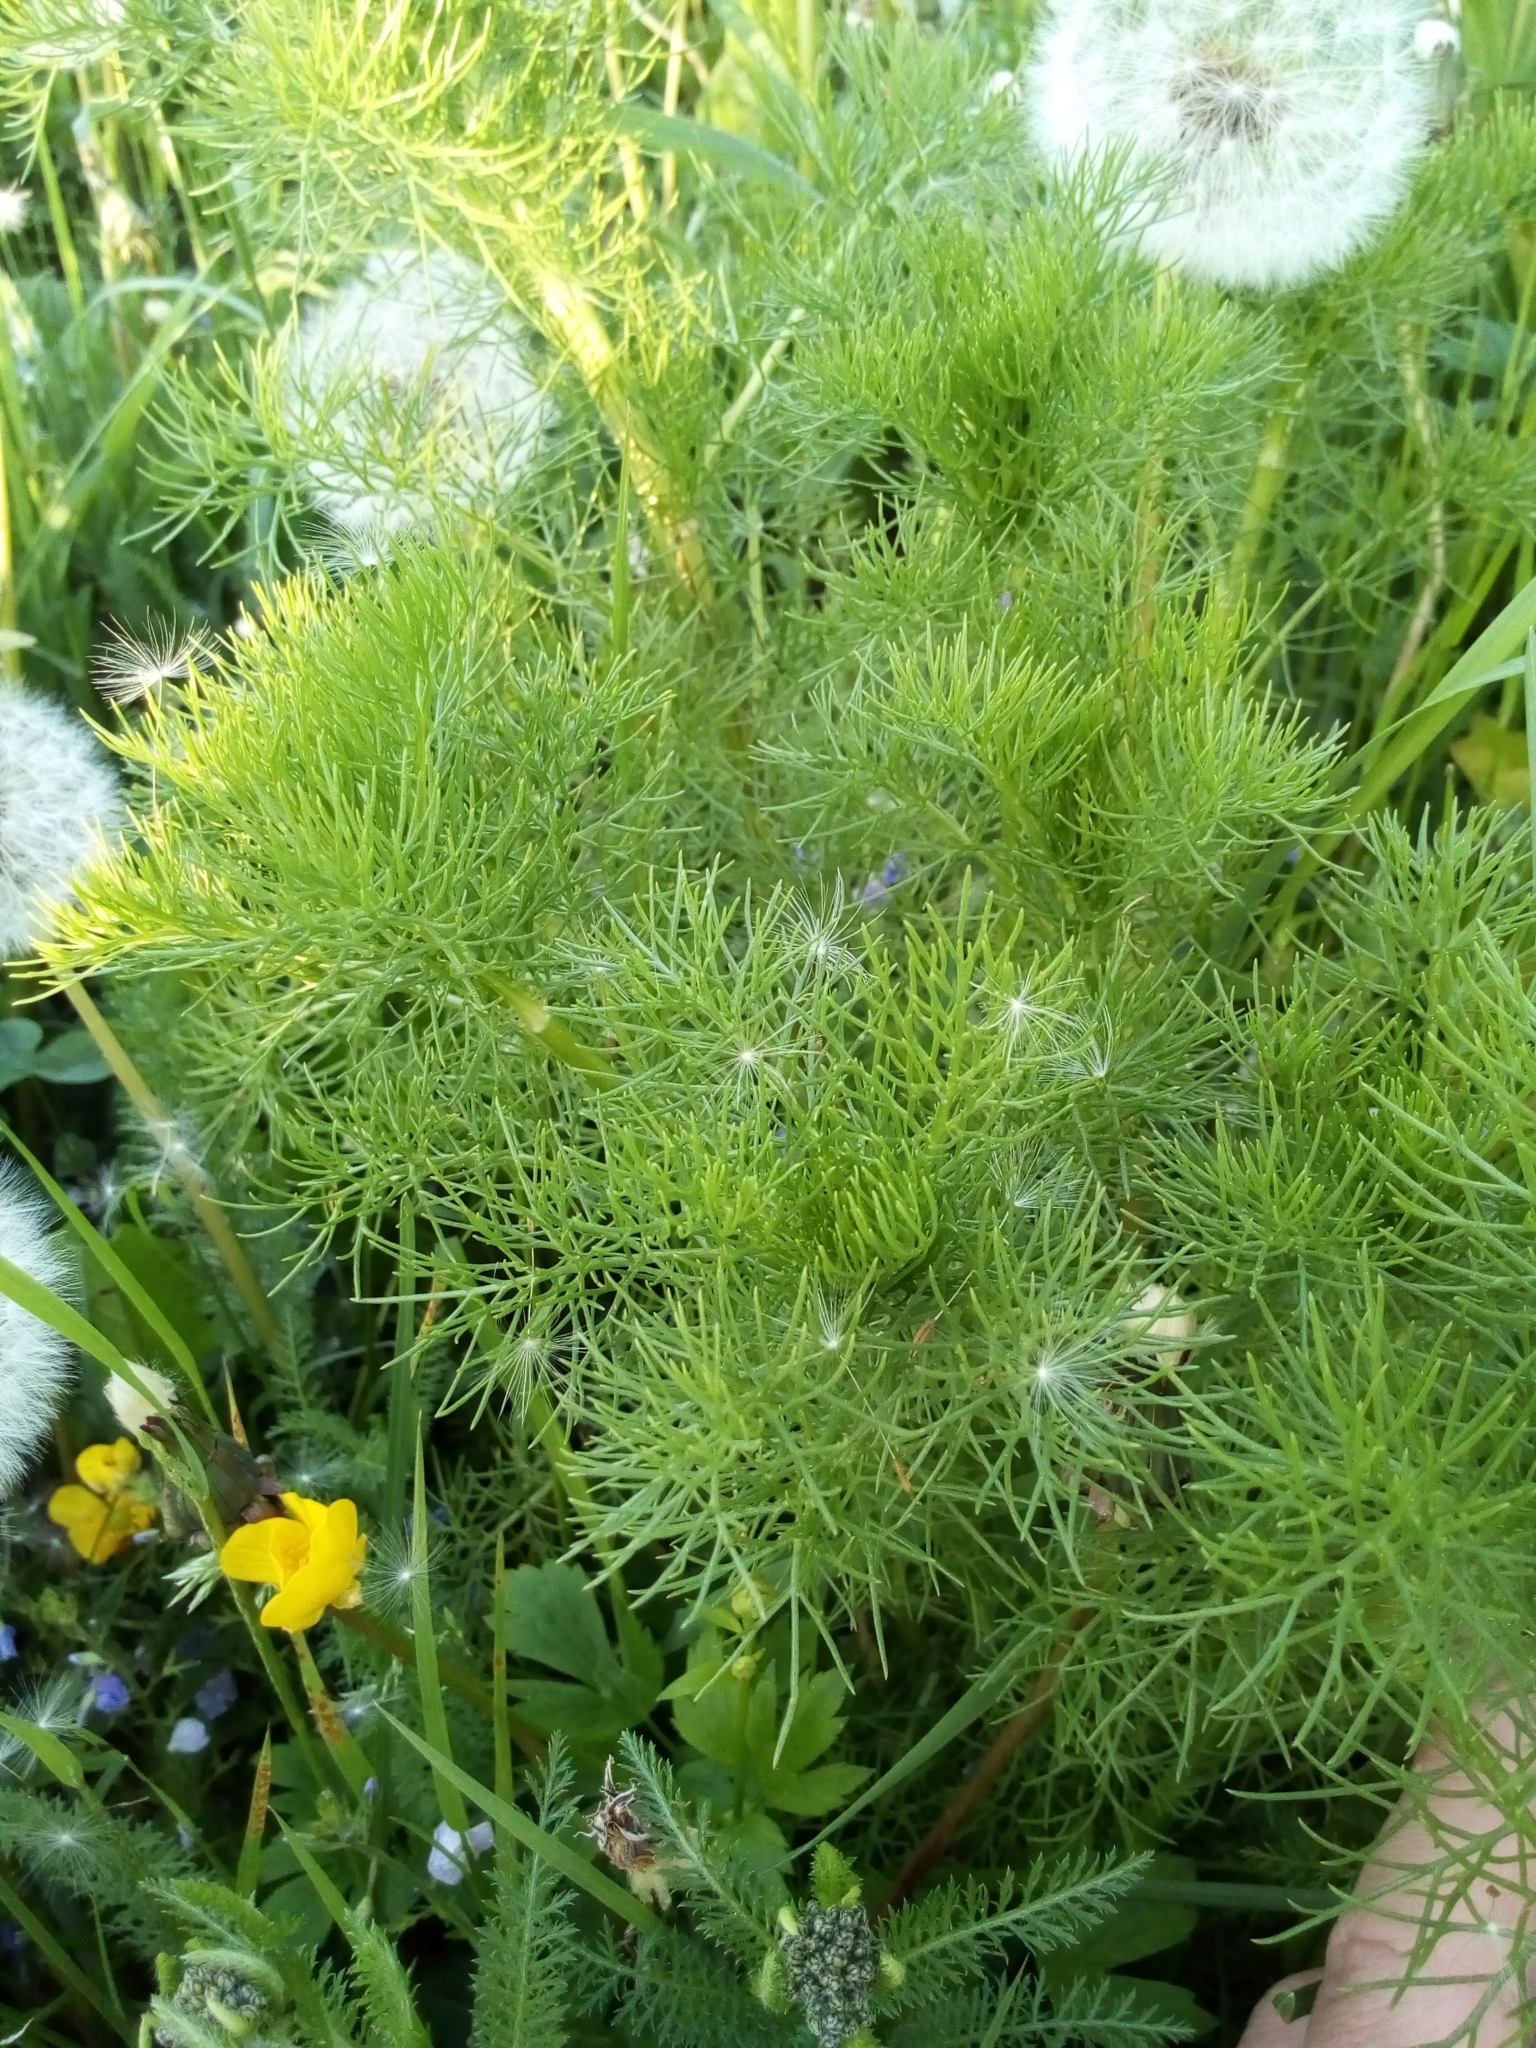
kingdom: Plantae
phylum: Tracheophyta
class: Magnoliopsida
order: Asterales
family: Asteraceae
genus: Tripleurospermum
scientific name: Tripleurospermum inodorum
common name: Scentless mayweed
